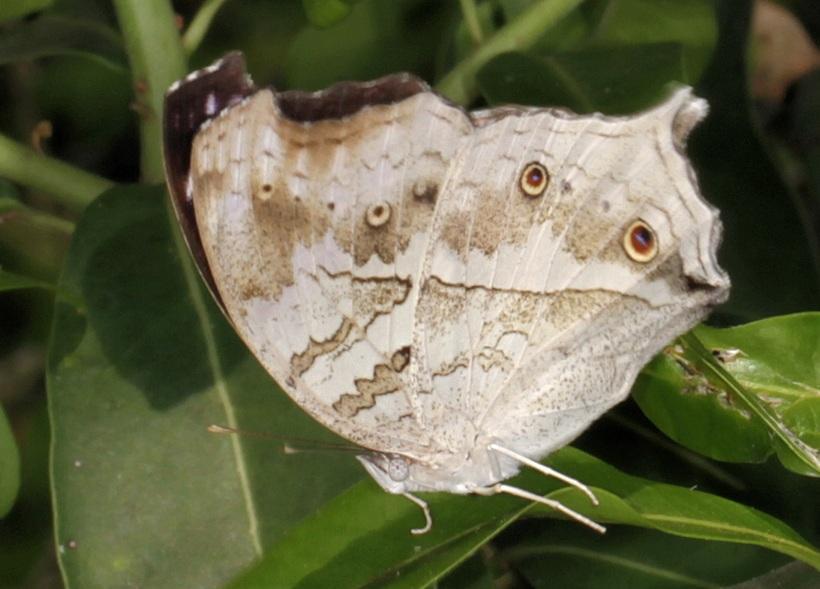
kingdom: Animalia
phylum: Arthropoda
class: Insecta
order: Lepidoptera
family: Nymphalidae
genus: Salamis
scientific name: Salamis
